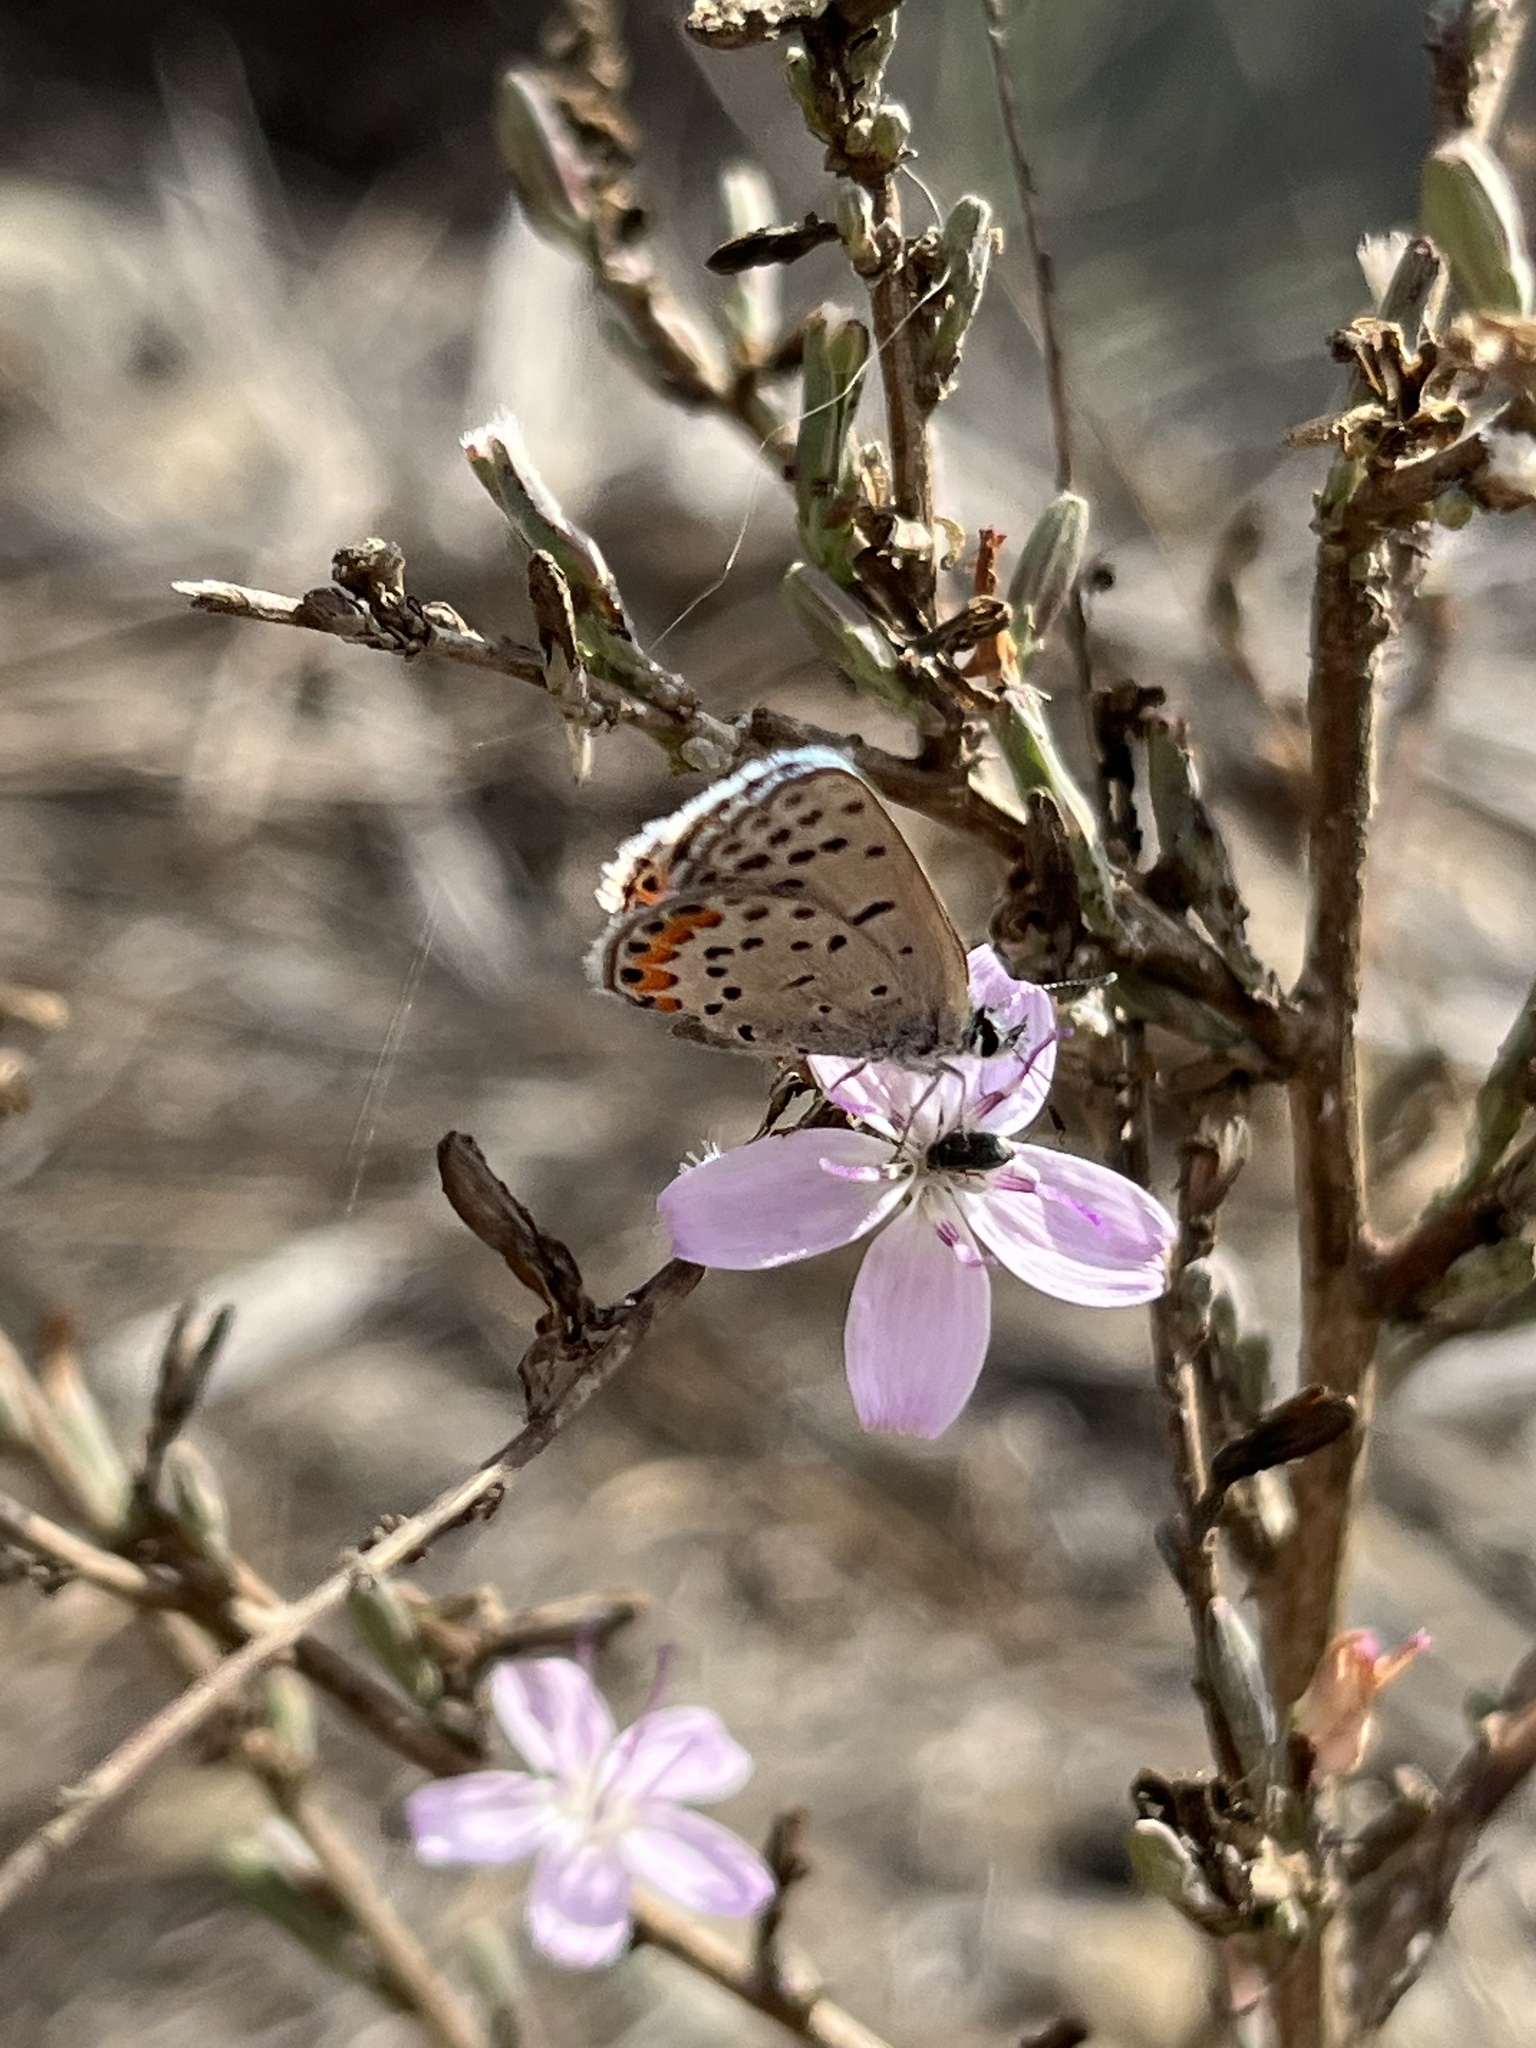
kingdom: Animalia
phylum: Arthropoda
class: Insecta
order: Lepidoptera
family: Lycaenidae
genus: Icaricia
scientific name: Icaricia acmon
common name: Acmon blue
